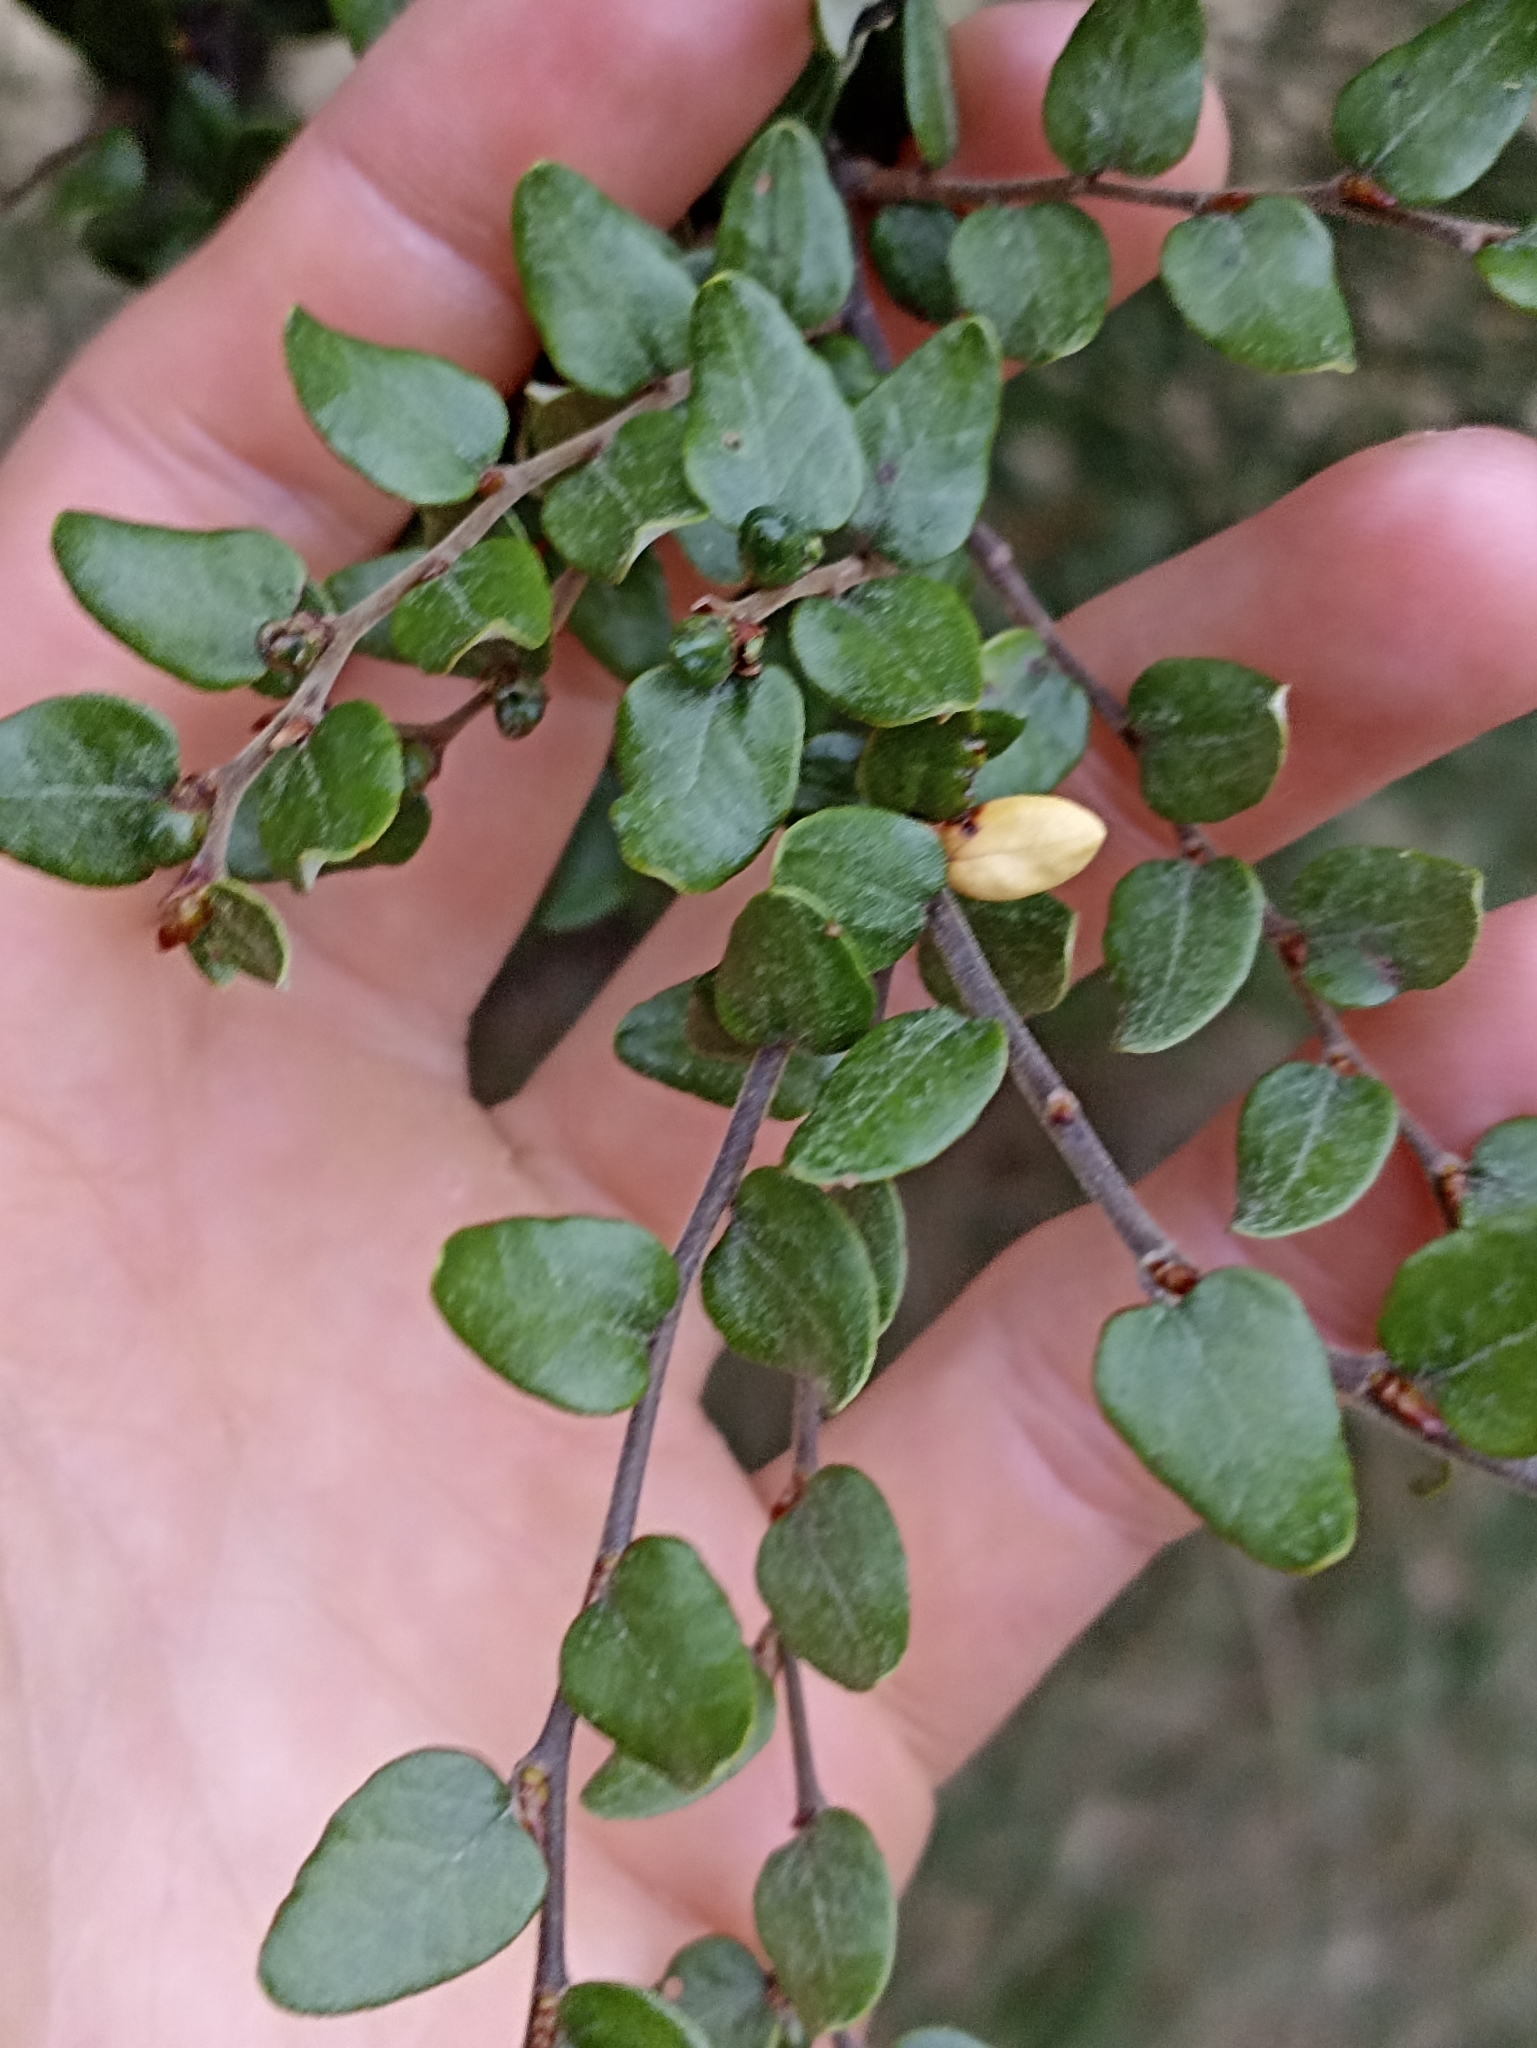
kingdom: Plantae
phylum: Tracheophyta
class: Magnoliopsida
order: Fagales
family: Nothofagaceae
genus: Nothofagus
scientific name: Nothofagus cliffortioides
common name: Mountain beech
